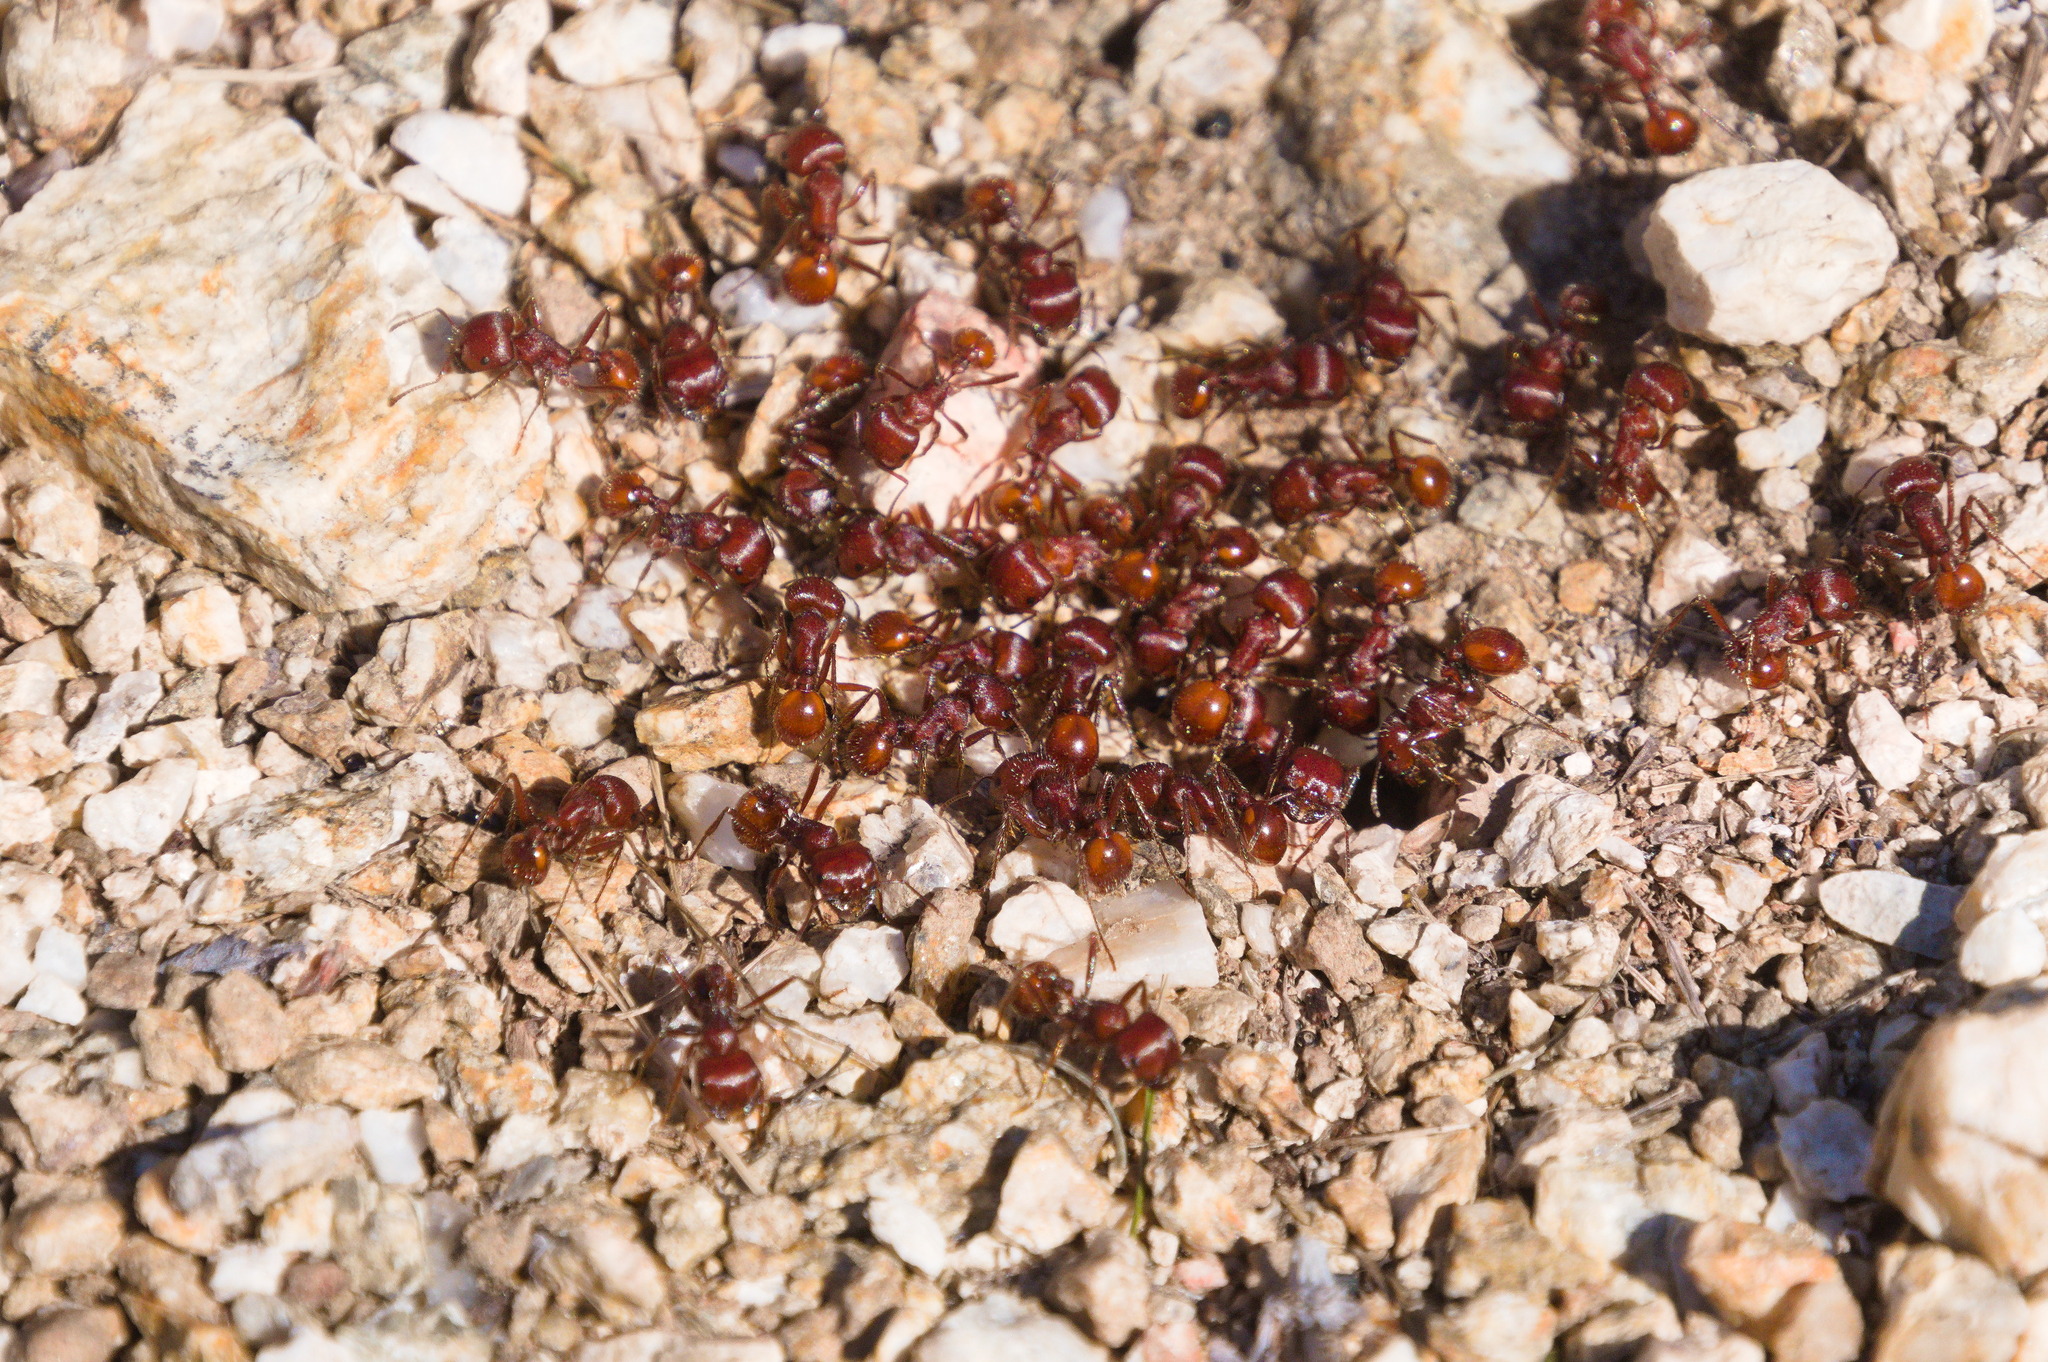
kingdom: Animalia
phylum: Arthropoda
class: Insecta
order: Hymenoptera
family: Formicidae
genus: Pogonomyrmex
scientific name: Pogonomyrmex barbatus
